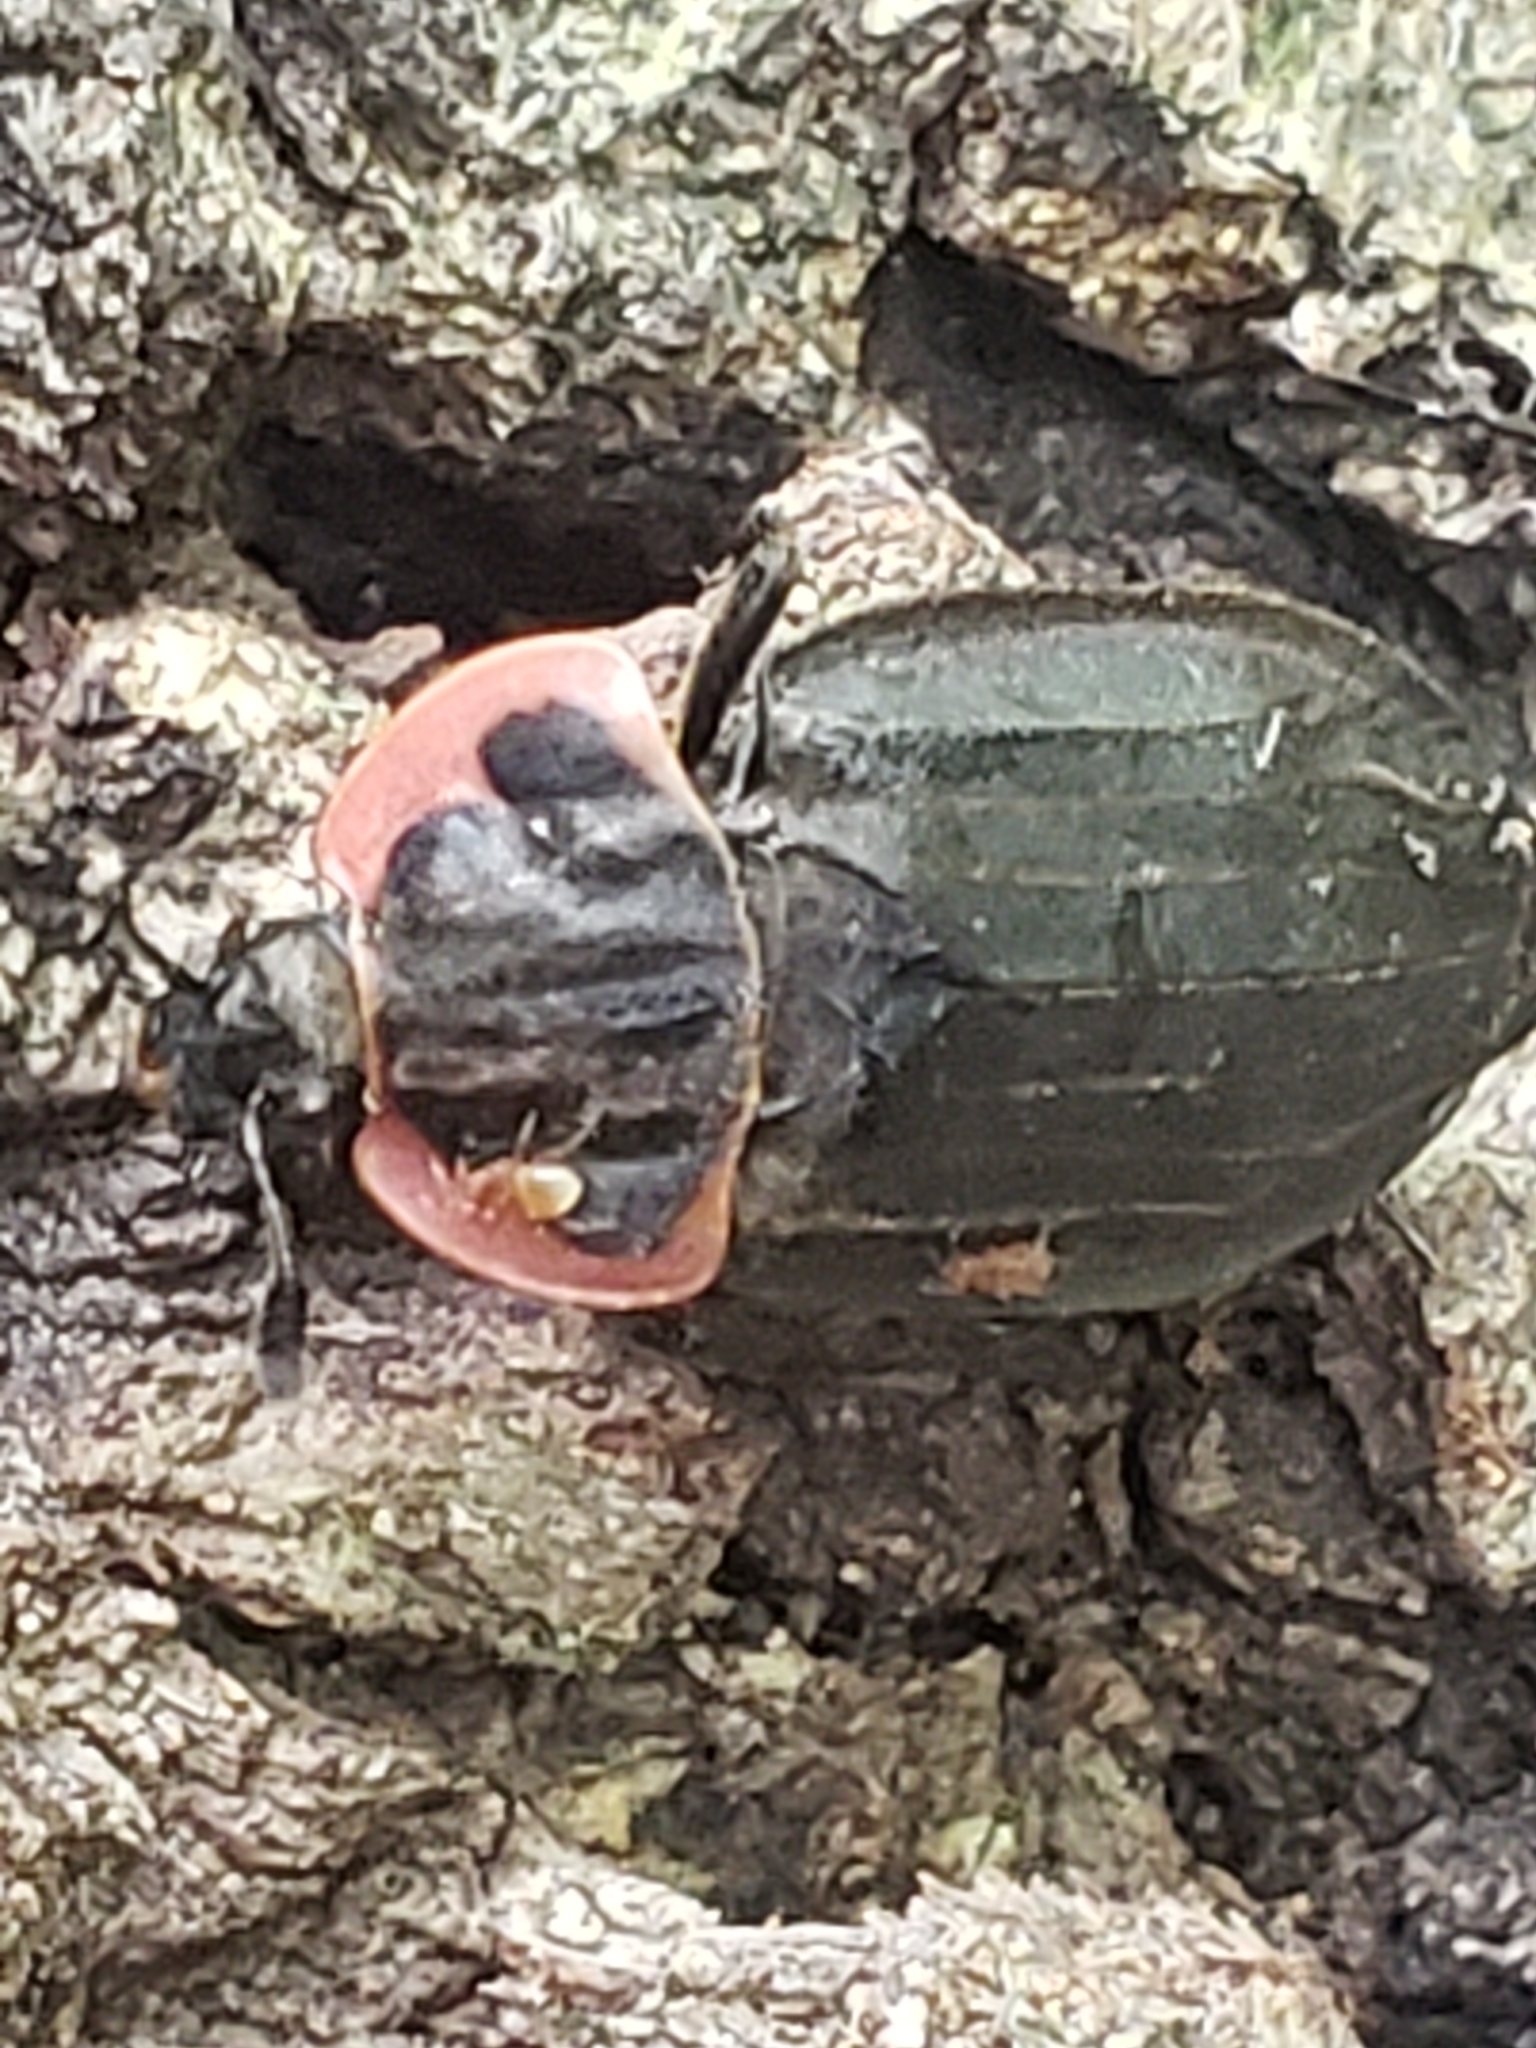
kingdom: Animalia
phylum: Arthropoda
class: Insecta
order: Coleoptera
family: Staphylinidae
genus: Oiceoptoma
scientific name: Oiceoptoma noveboracense
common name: Margined carrion beetle
